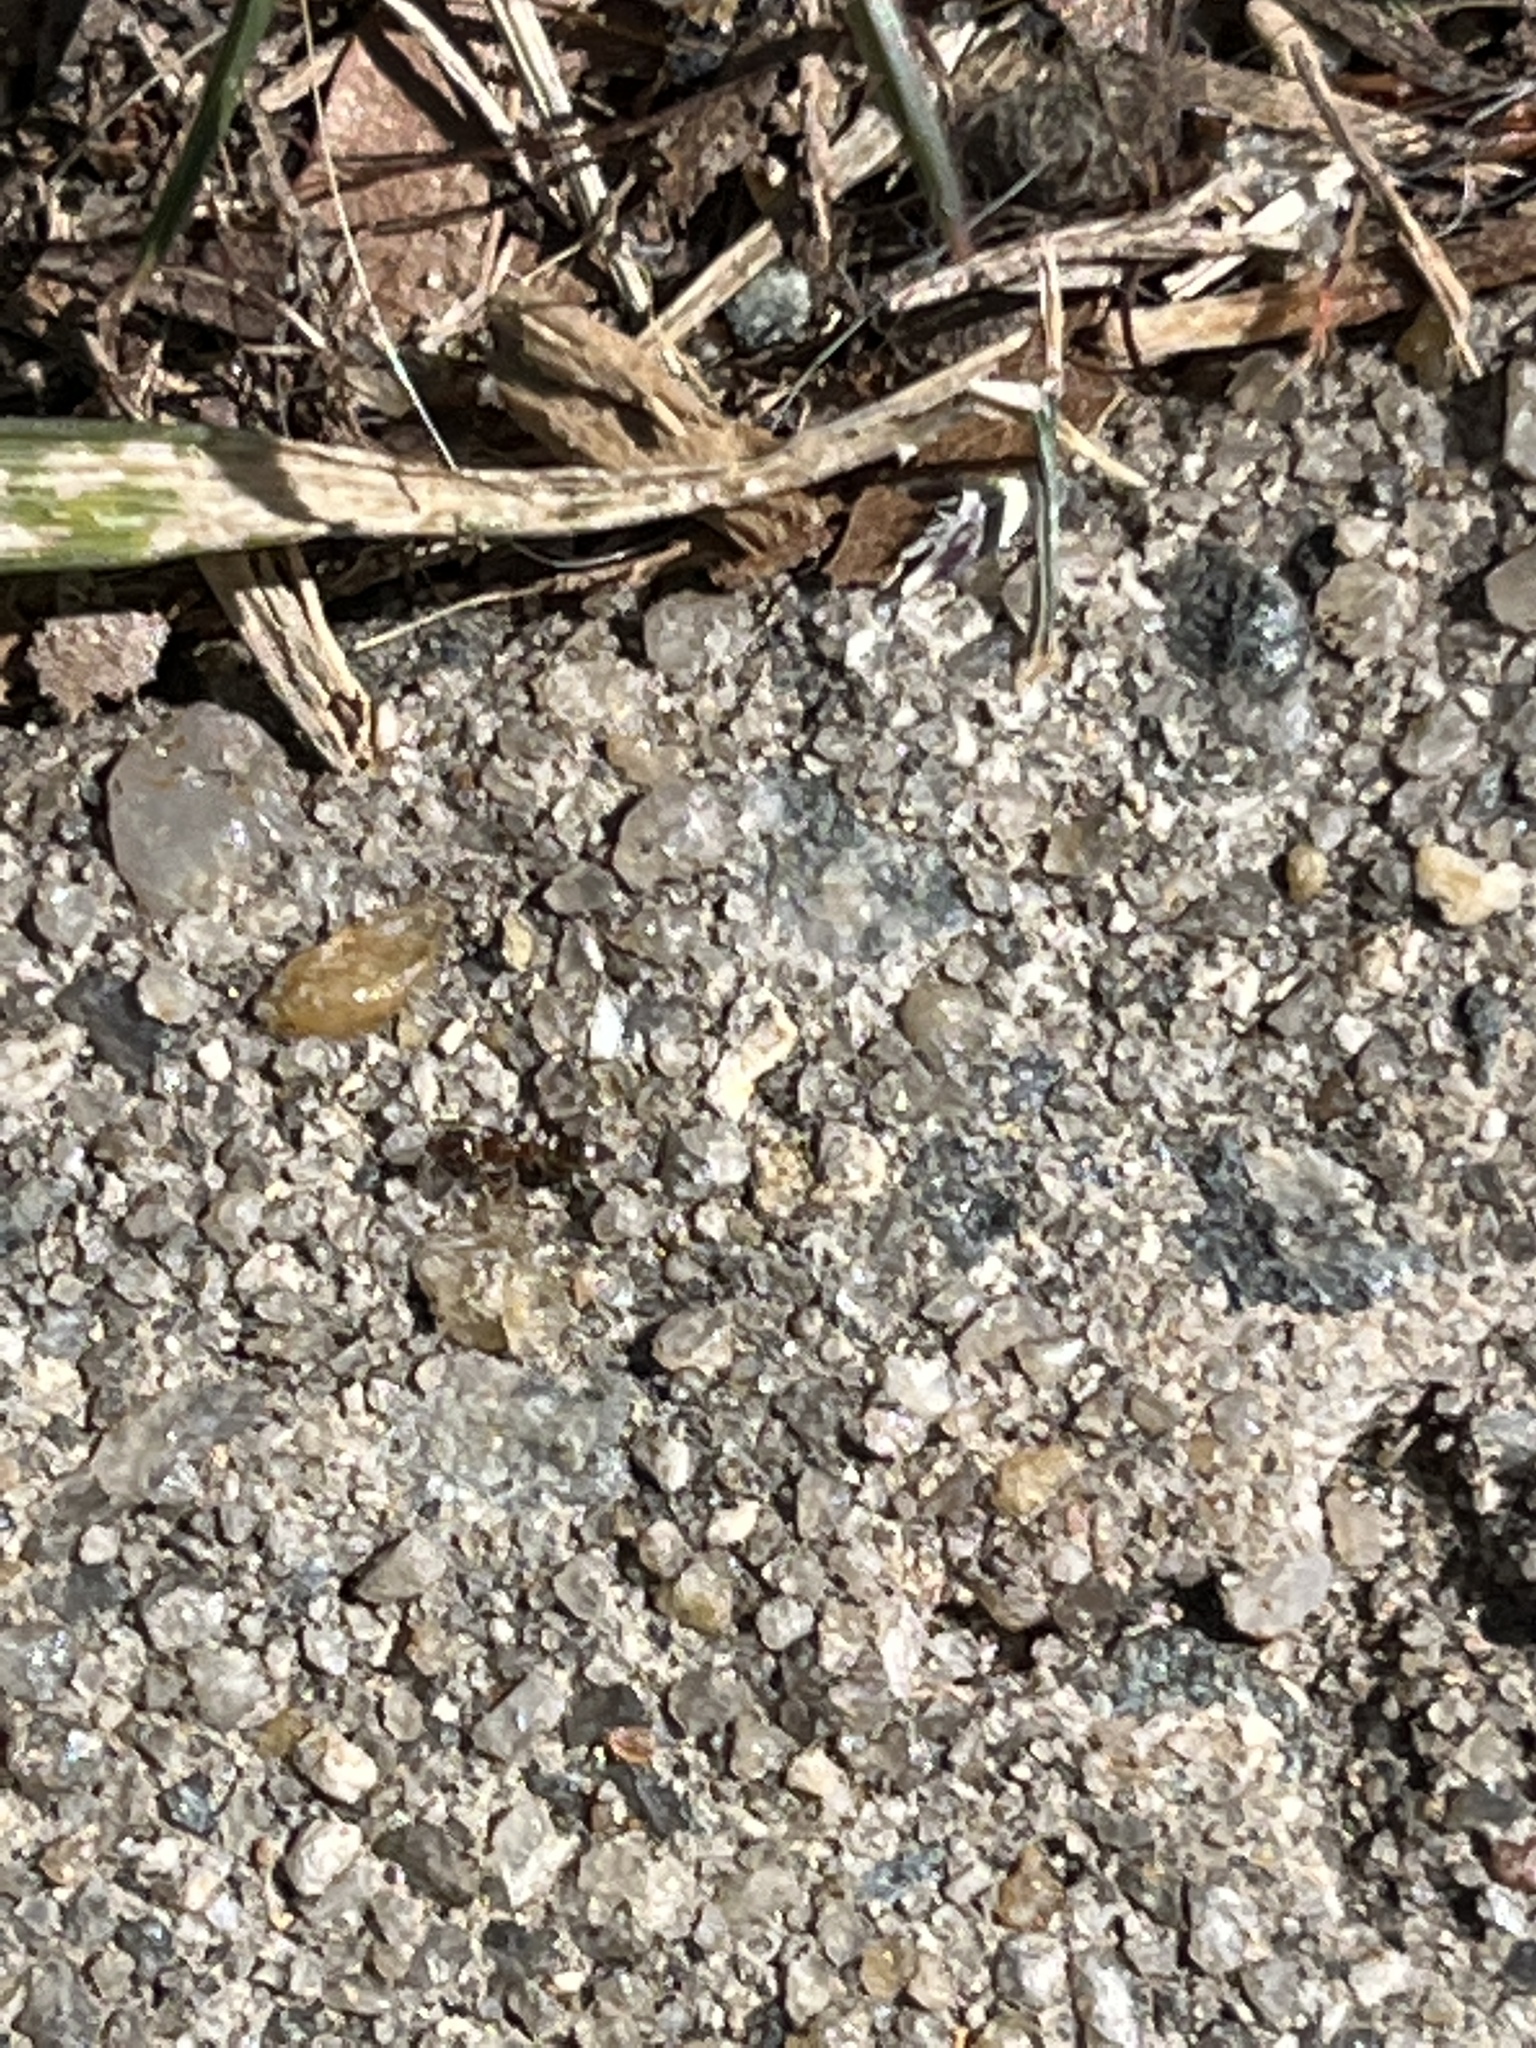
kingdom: Animalia
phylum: Arthropoda
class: Insecta
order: Hymenoptera
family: Formicidae
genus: Linepithema
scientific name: Linepithema humile
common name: Argentine ant
